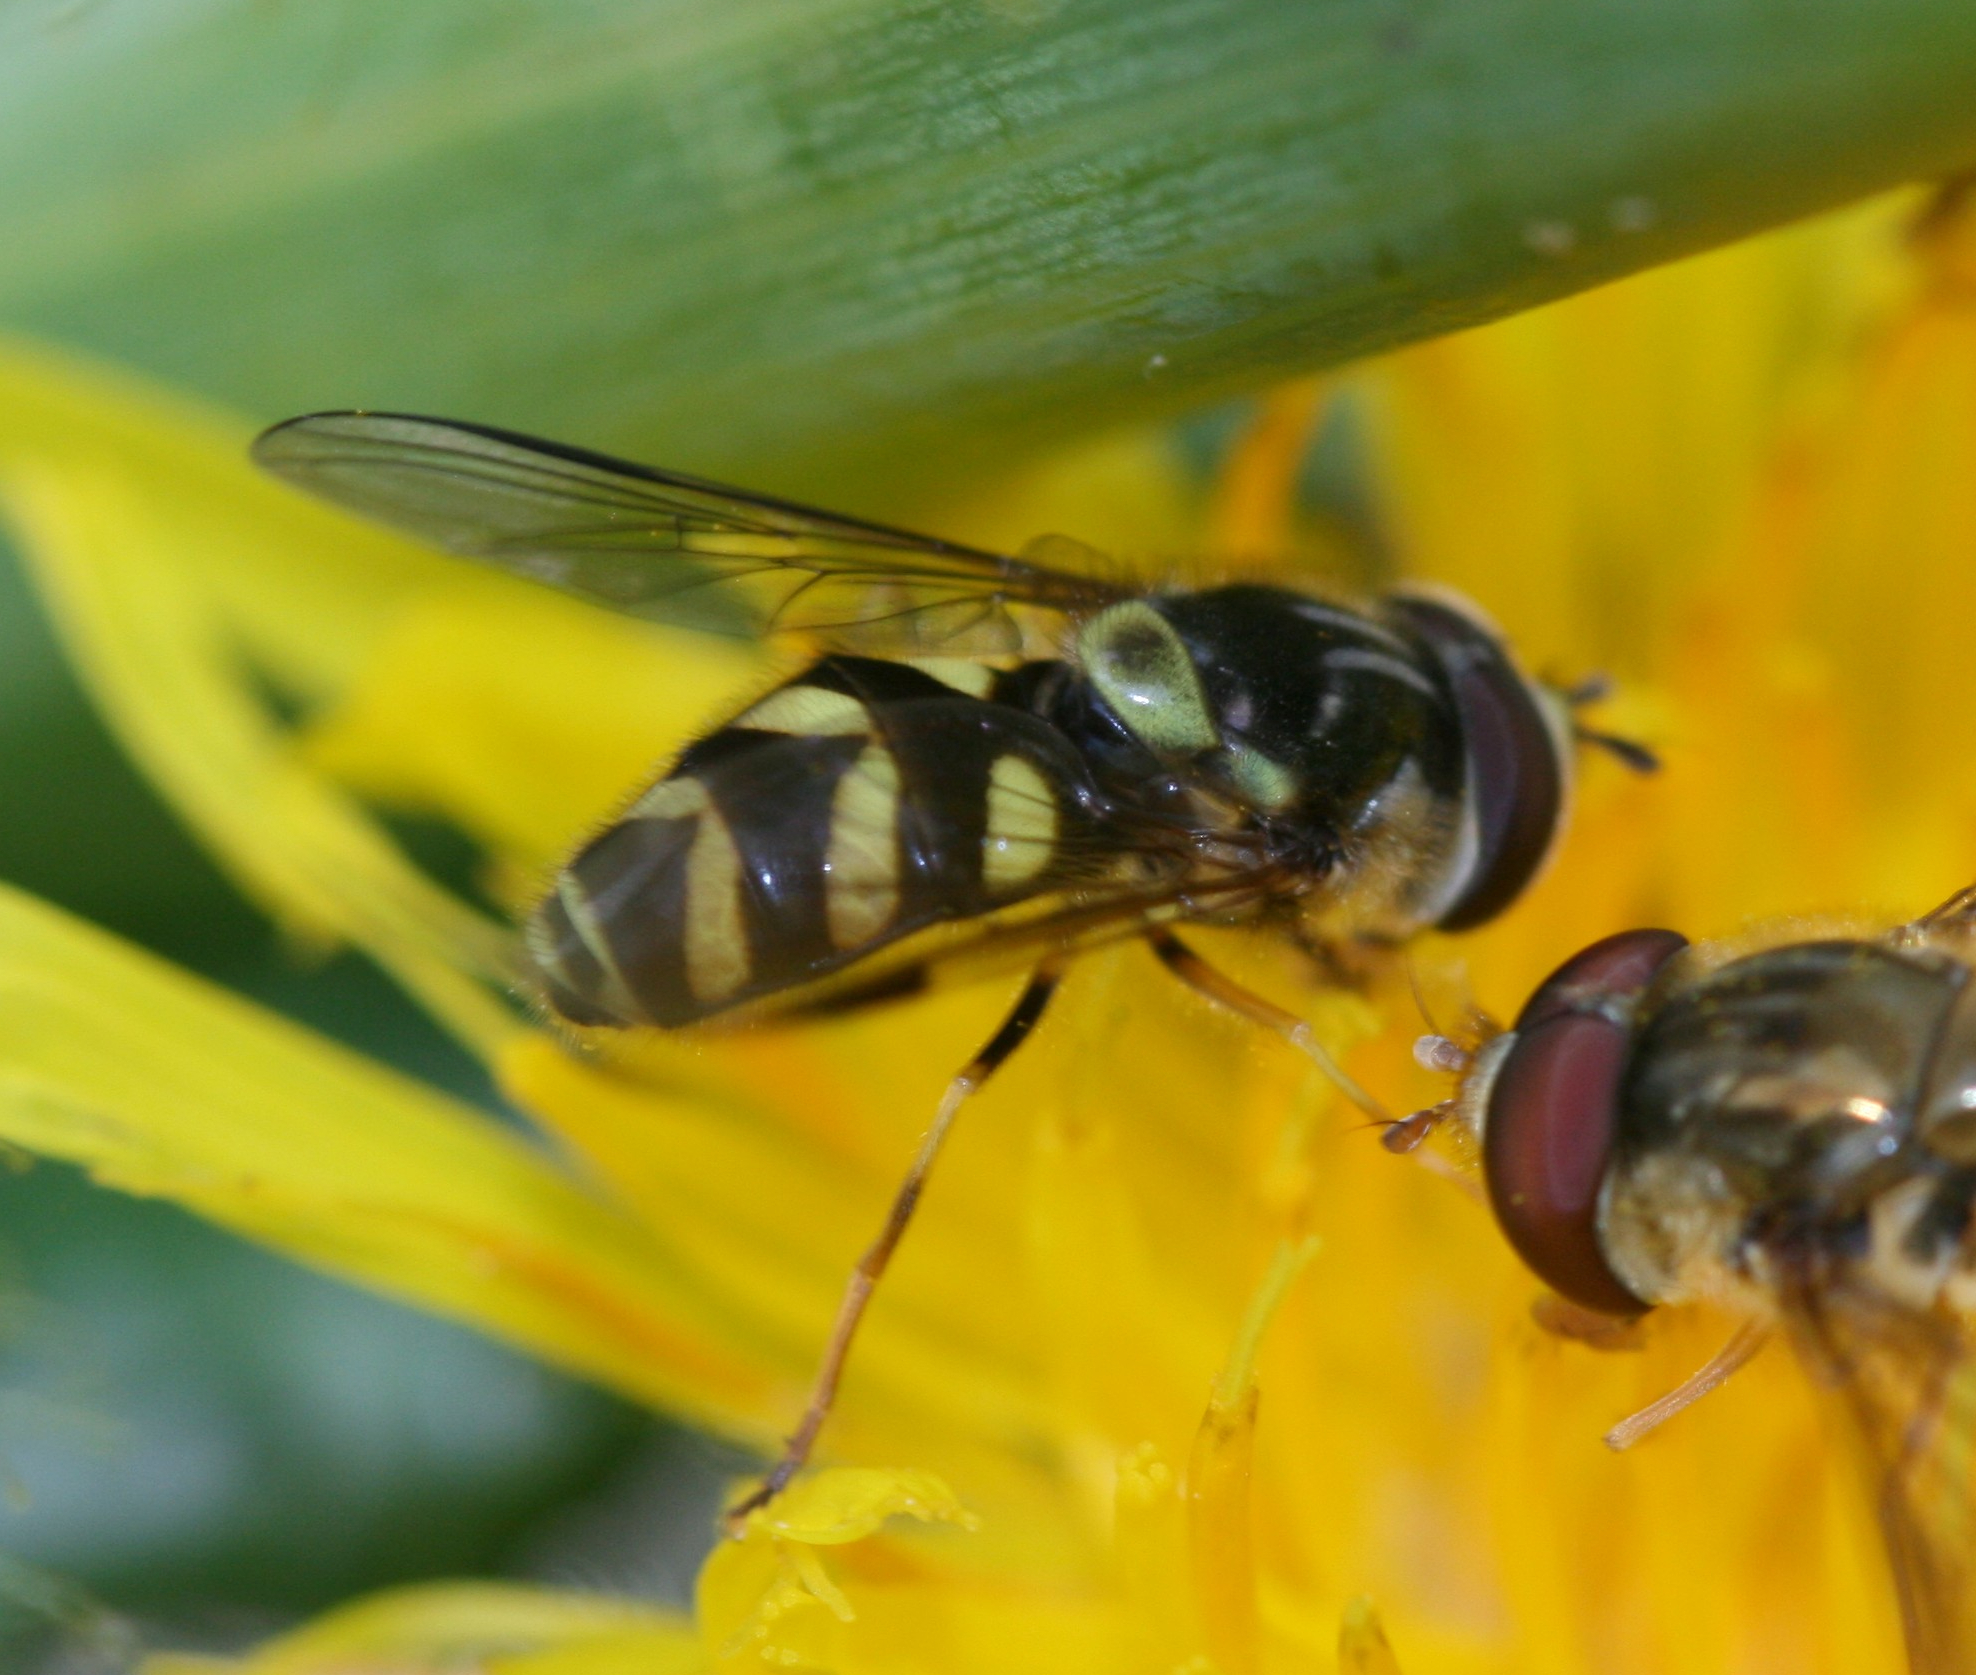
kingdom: Animalia
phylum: Arthropoda
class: Insecta
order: Diptera
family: Syrphidae
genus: Dasysyrphus
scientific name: Dasysyrphus albostriatus
